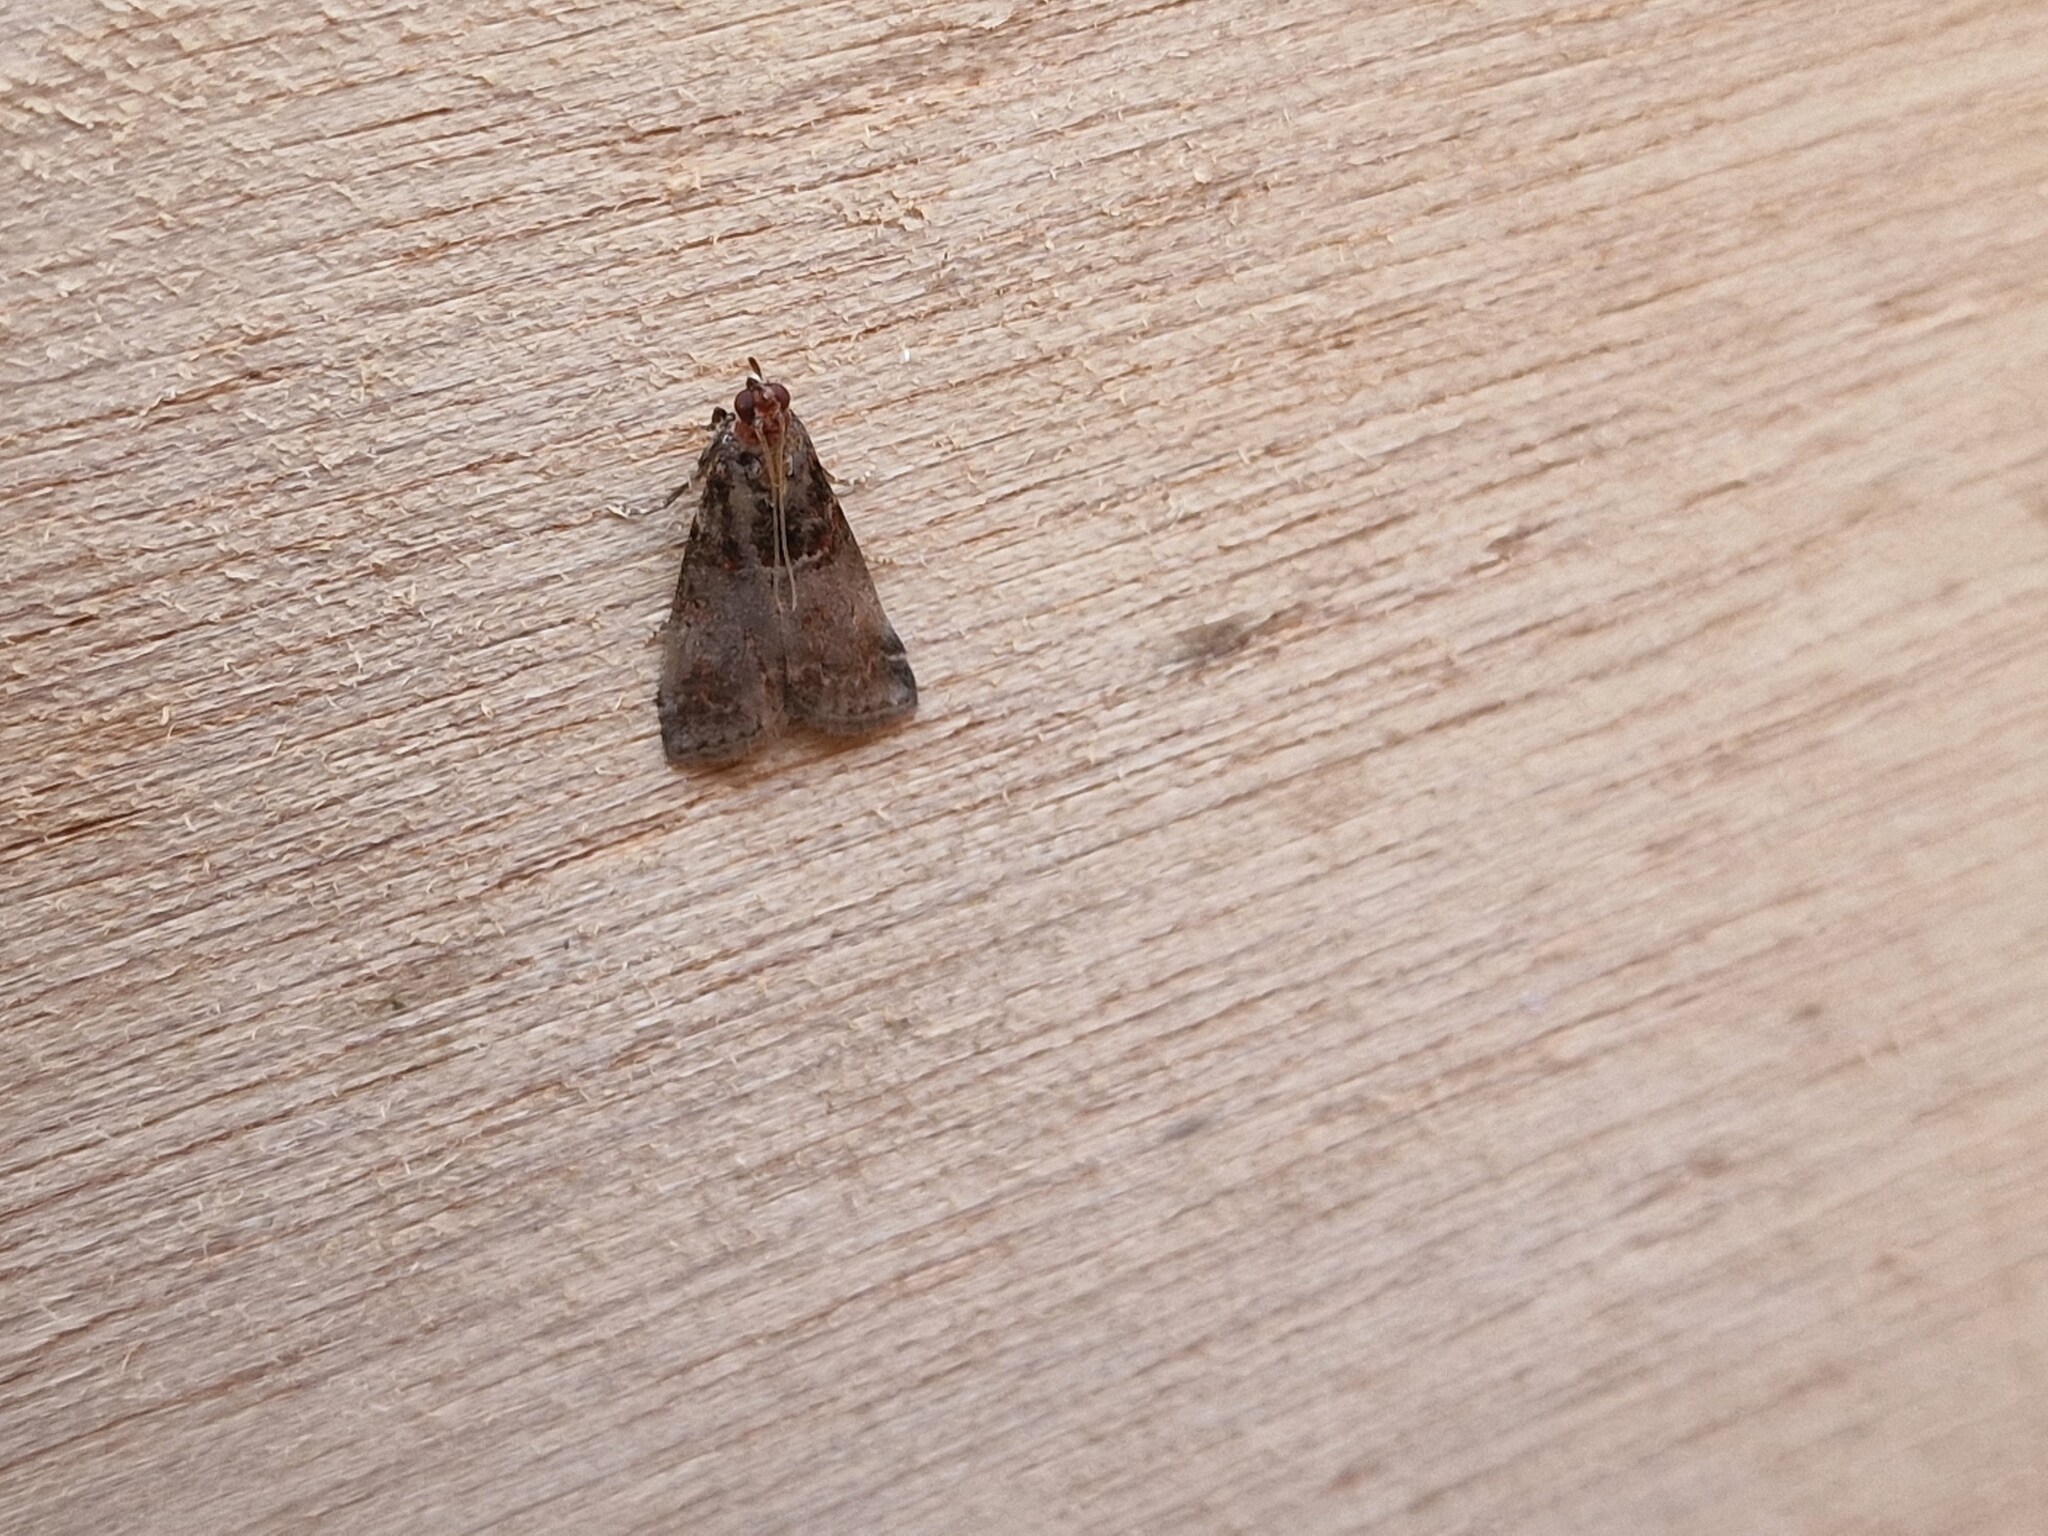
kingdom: Animalia
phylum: Arthropoda
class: Insecta
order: Lepidoptera
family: Pyralidae
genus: Acrobasis
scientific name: Acrobasis advenella
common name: Grey knot-horn
